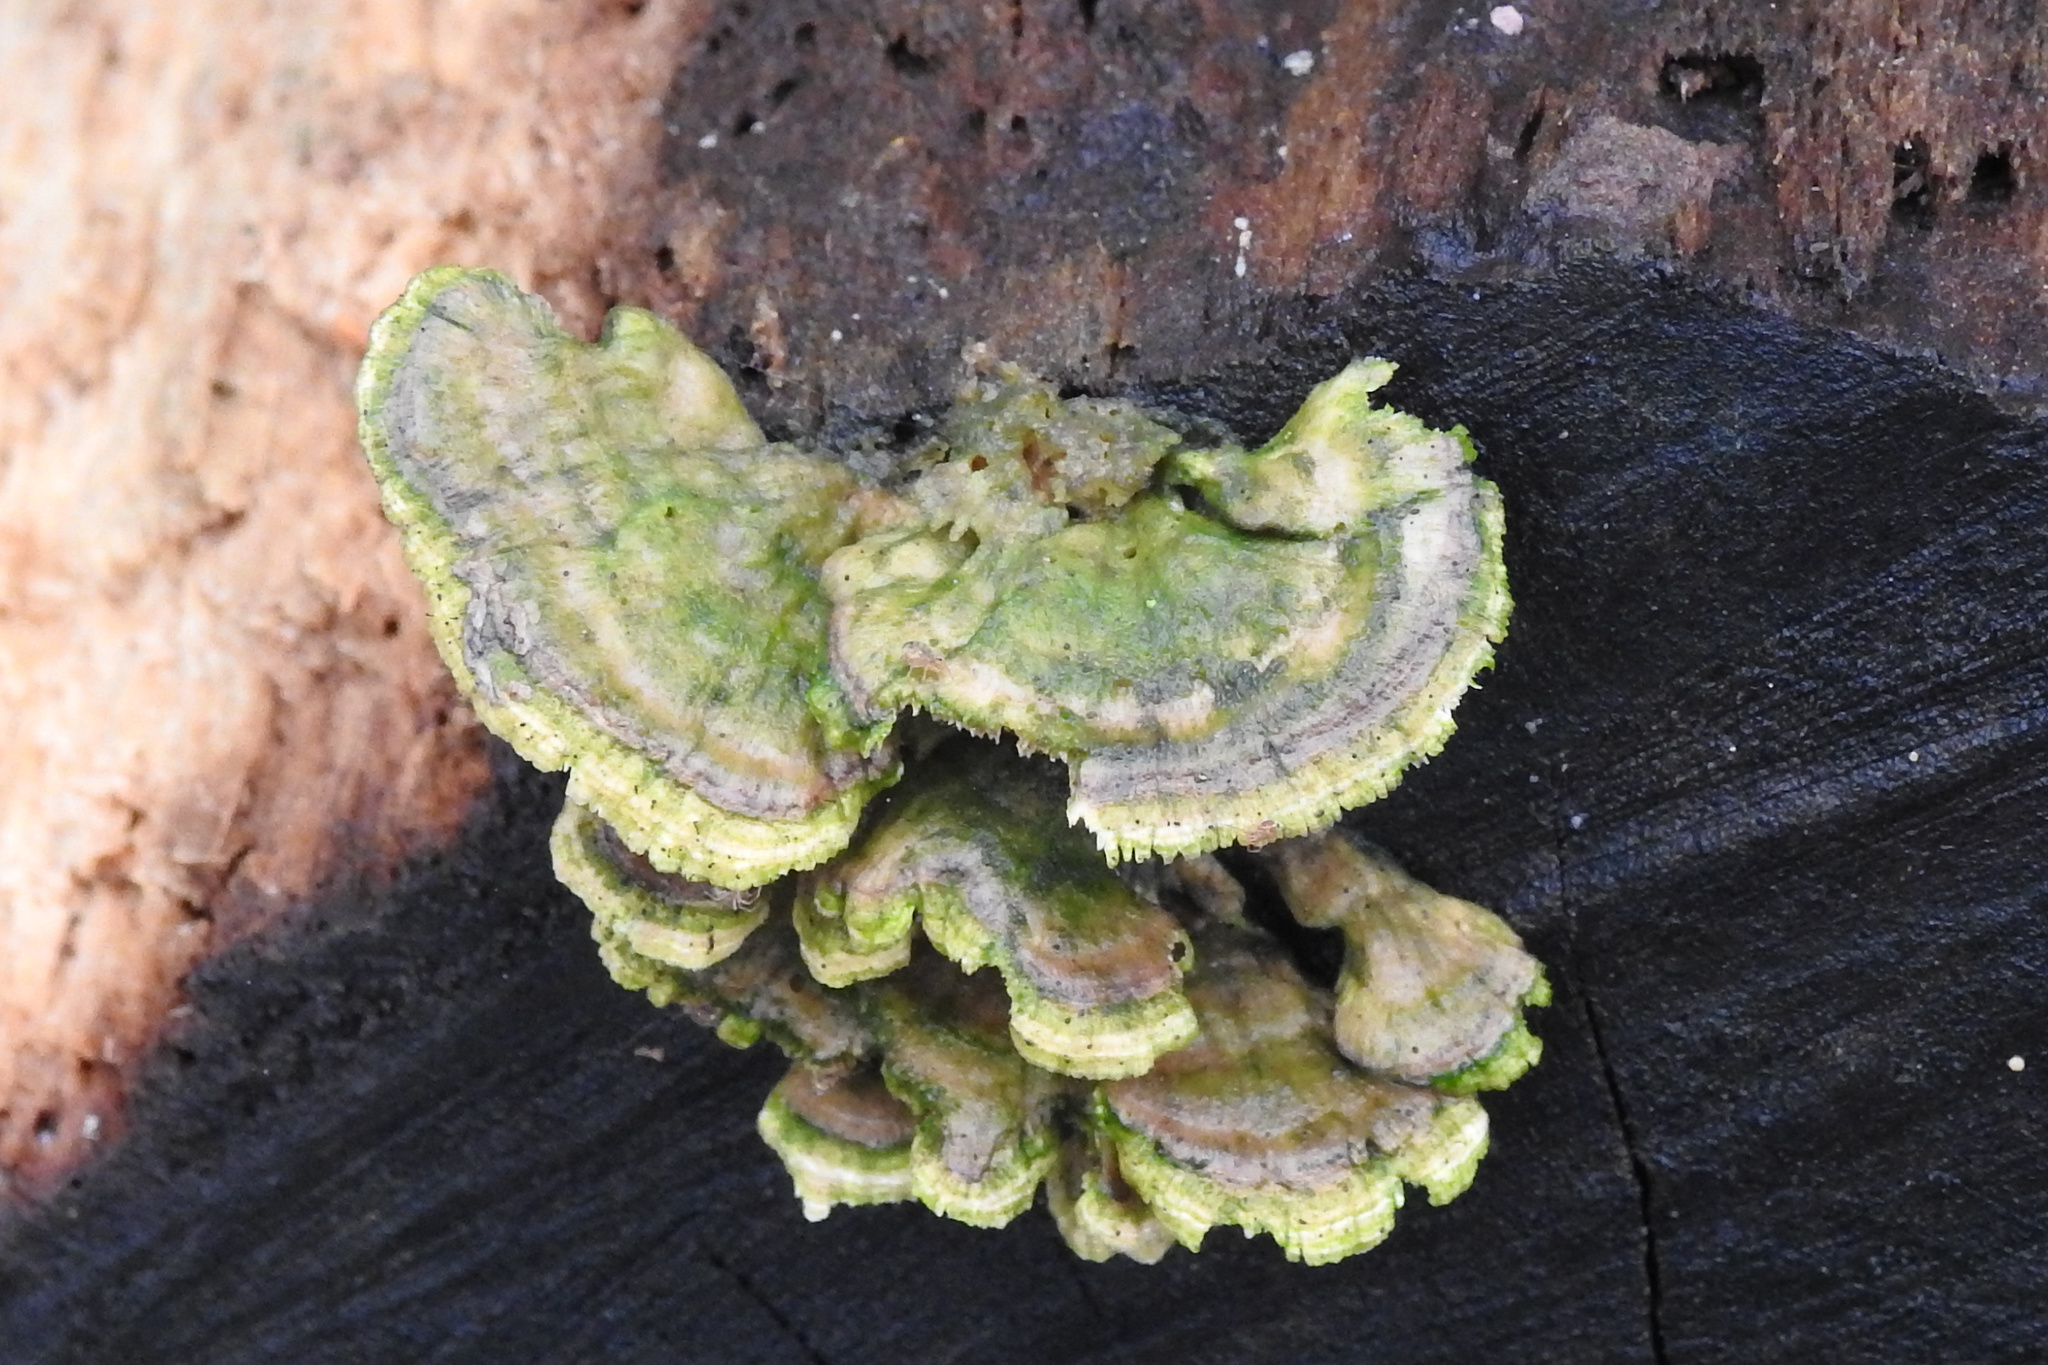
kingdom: Fungi
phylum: Basidiomycota
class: Agaricomycetes
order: Hymenochaetales
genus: Trichaptum
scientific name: Trichaptum biforme
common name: Violet-toothed polypore
